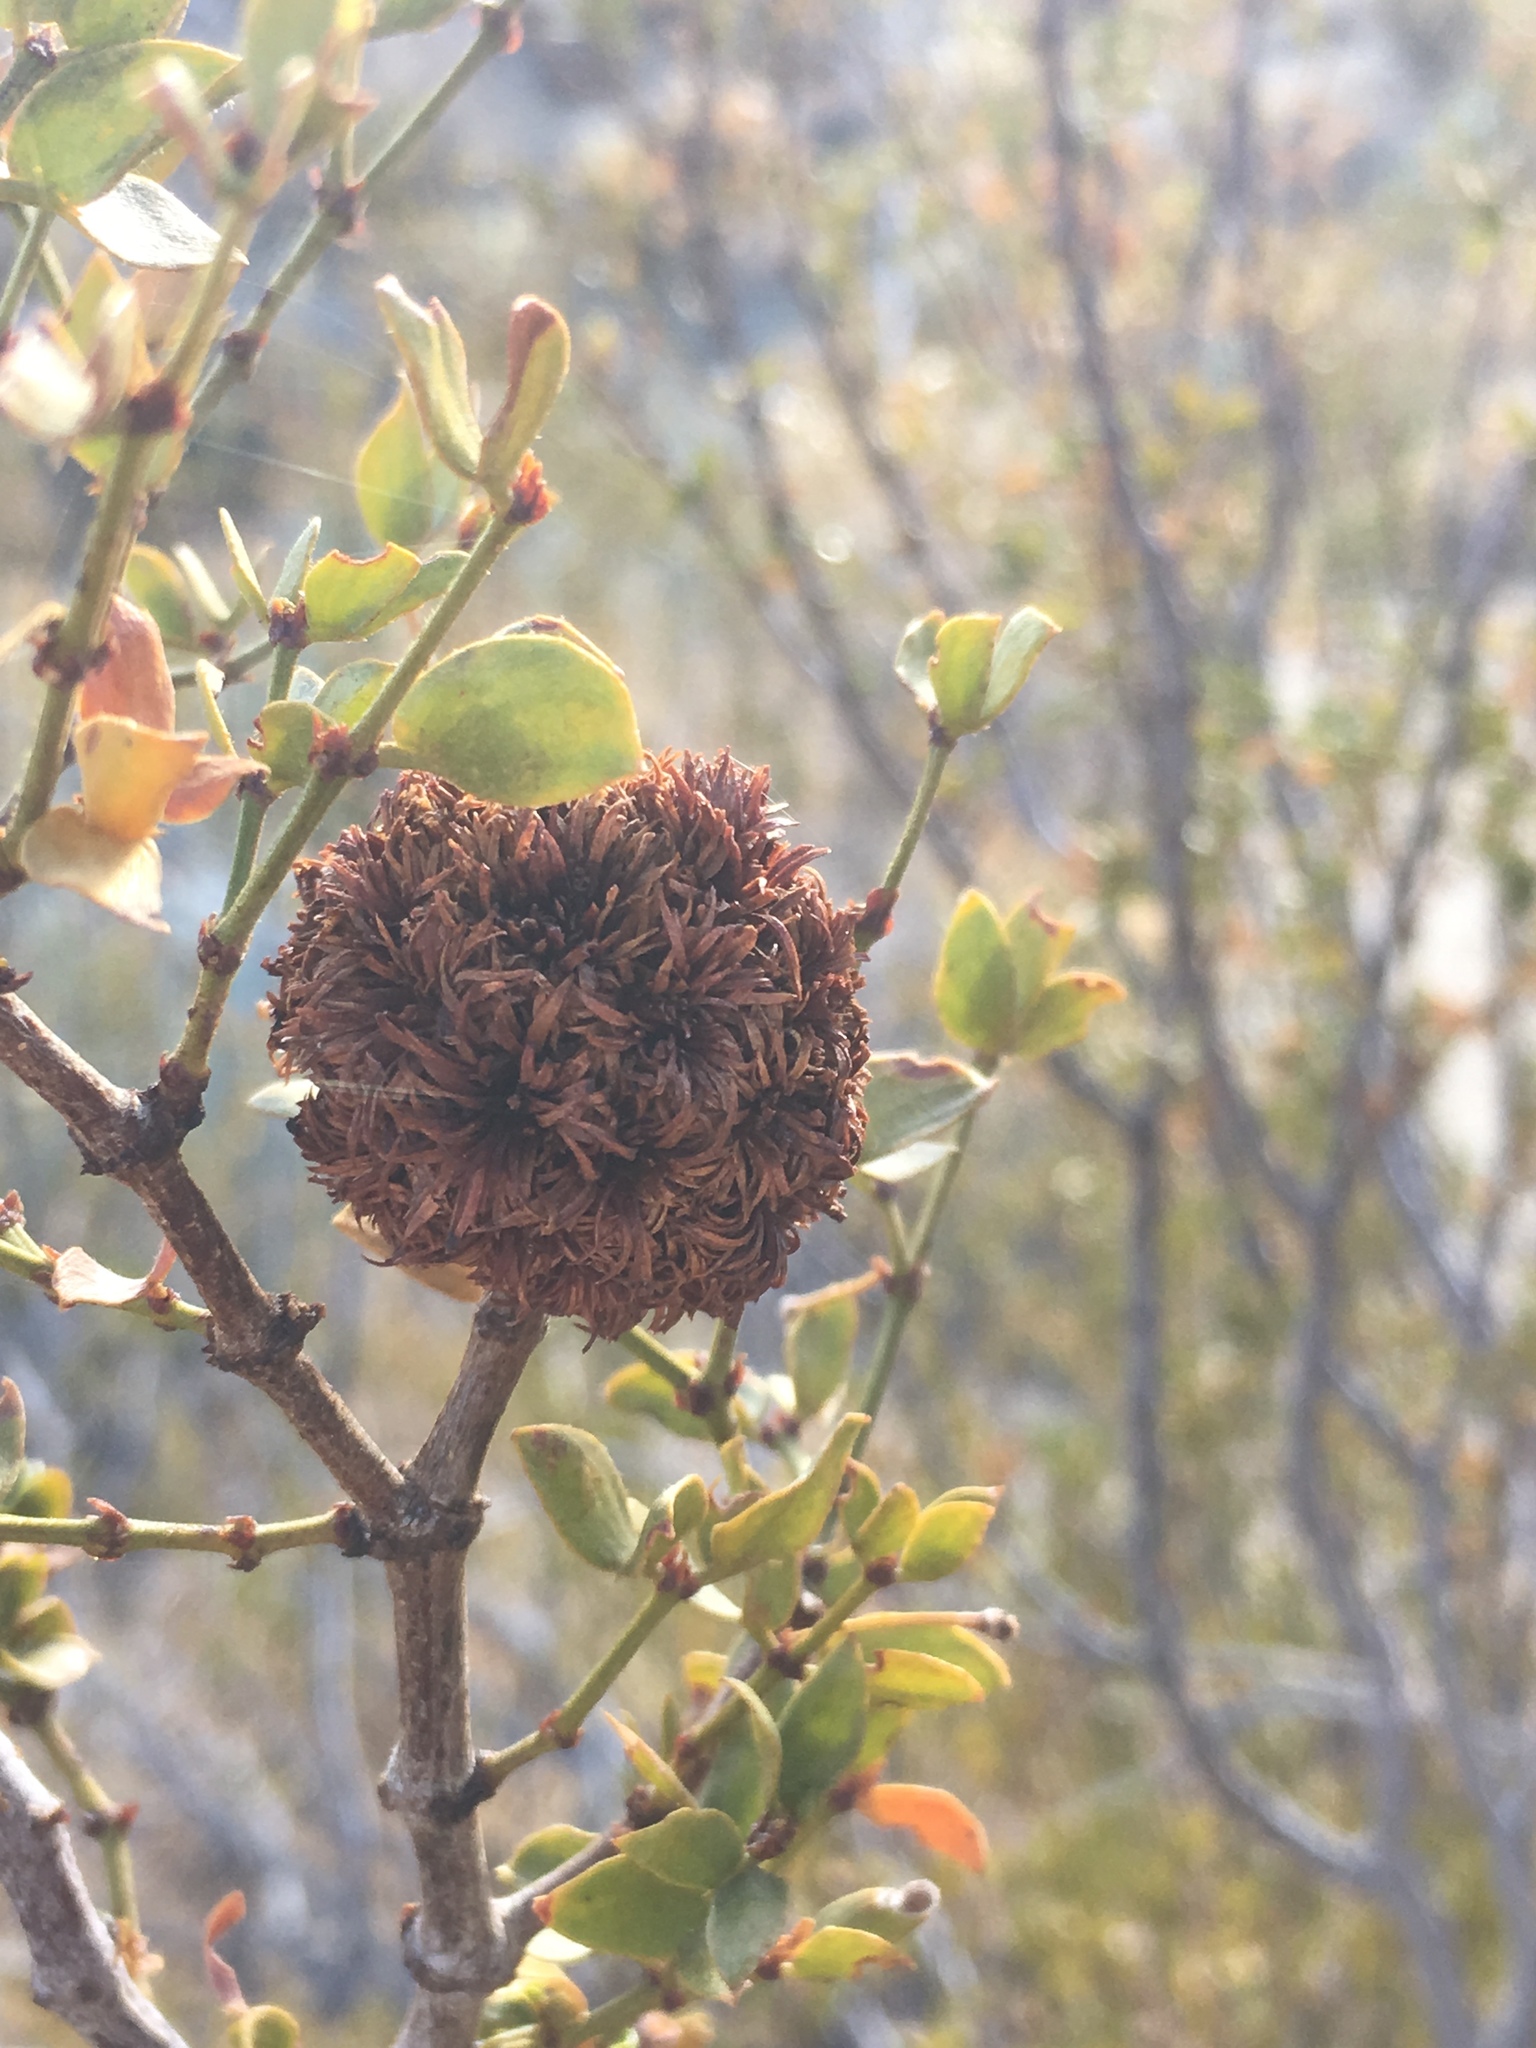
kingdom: Animalia
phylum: Arthropoda
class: Insecta
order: Diptera
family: Cecidomyiidae
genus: Asphondylia
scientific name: Asphondylia auripila
